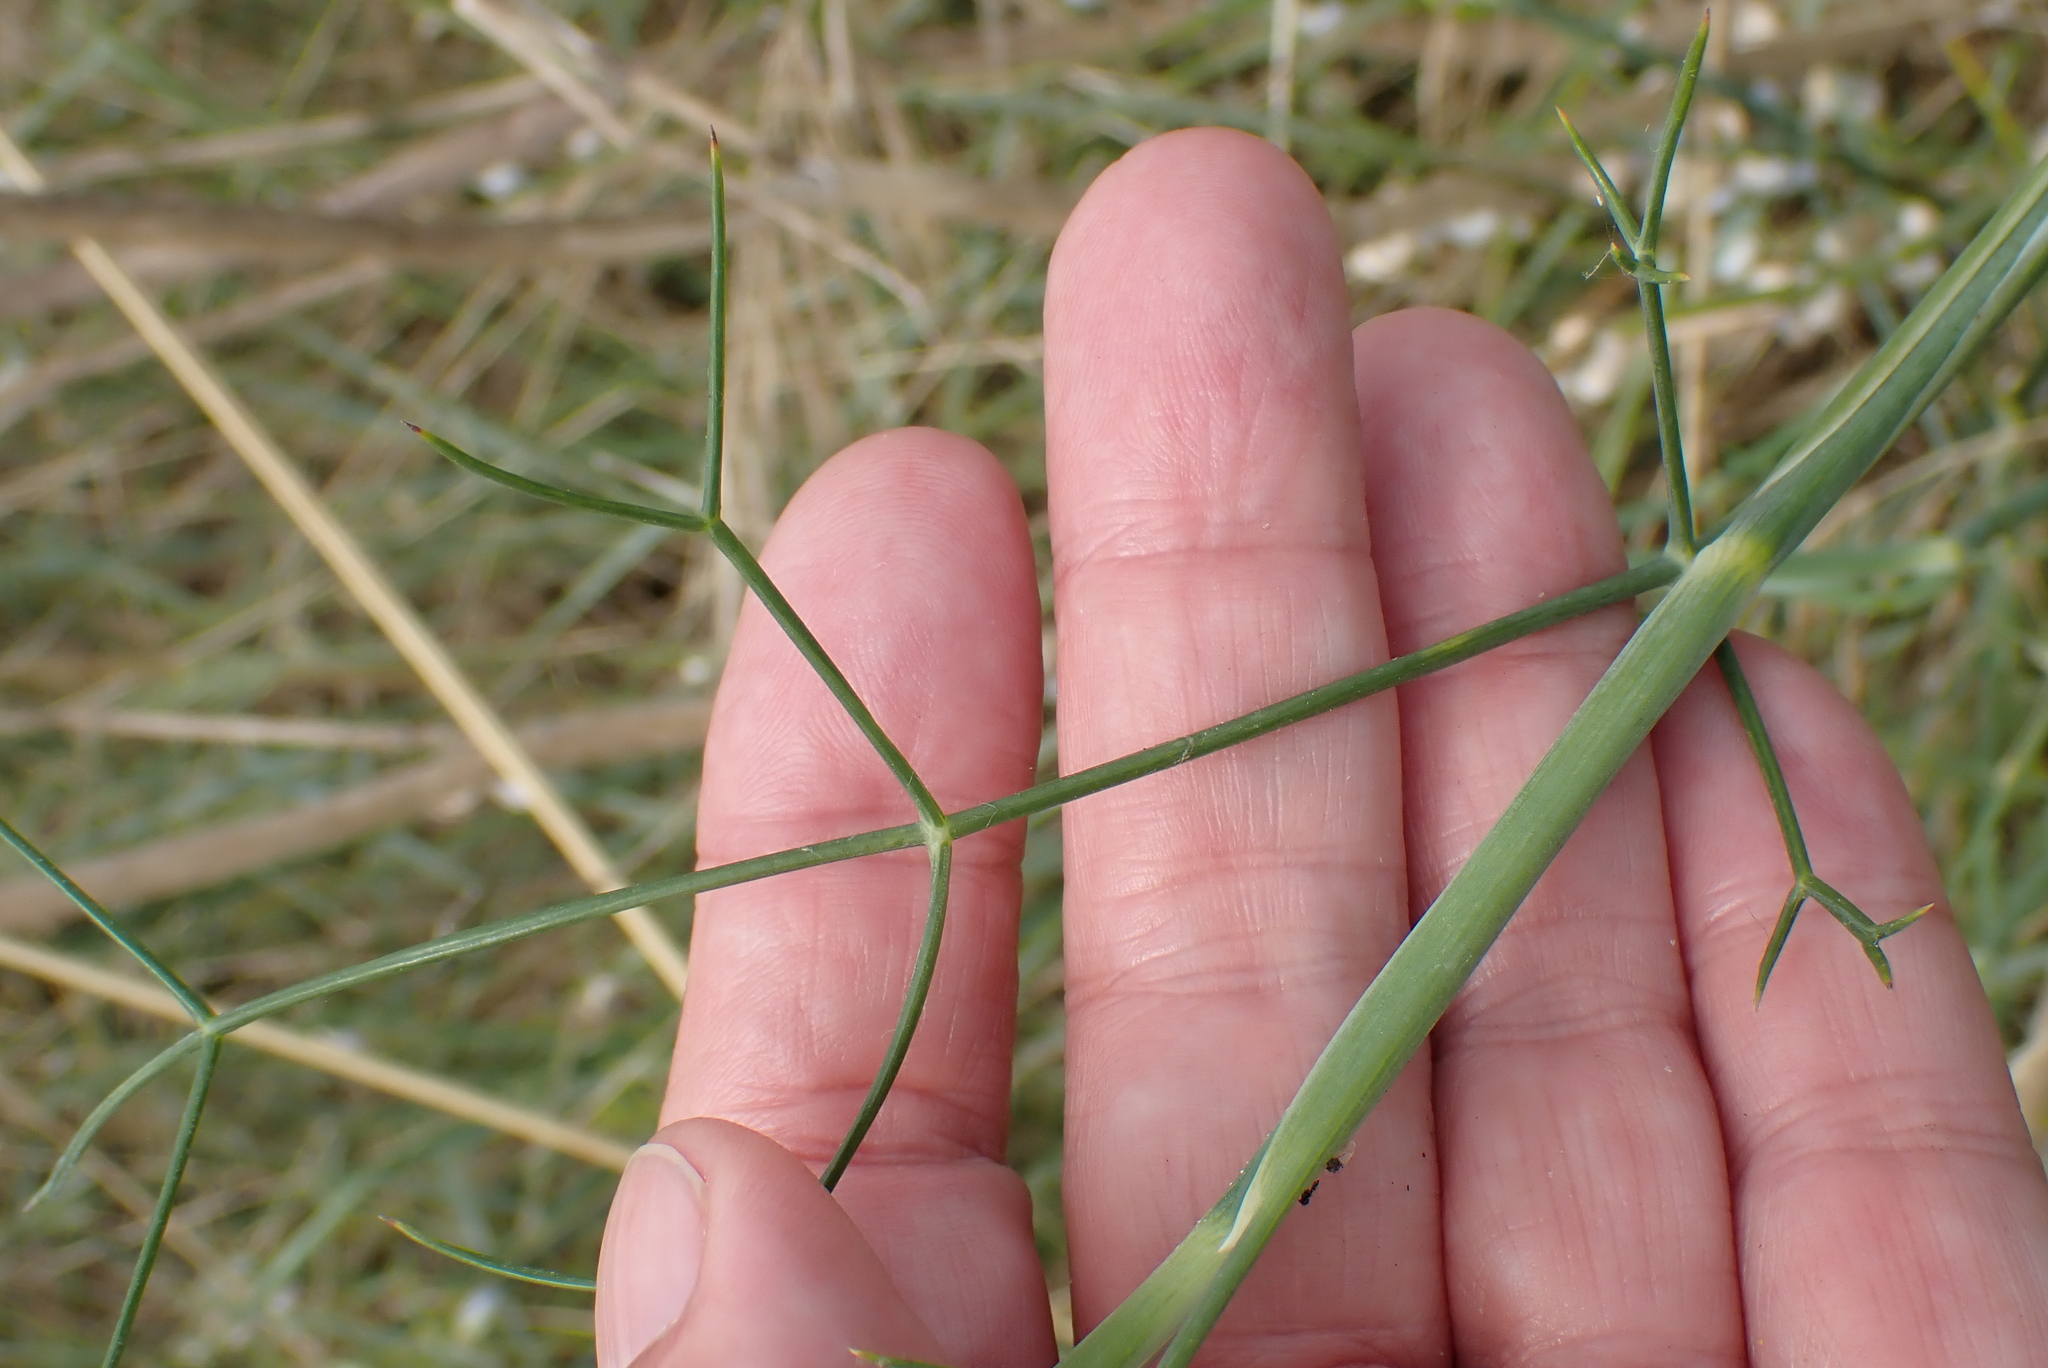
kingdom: Plantae
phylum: Tracheophyta
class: Magnoliopsida
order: Apiales
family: Apiaceae
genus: Foeniculum
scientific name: Foeniculum vulgare
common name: Fennel
